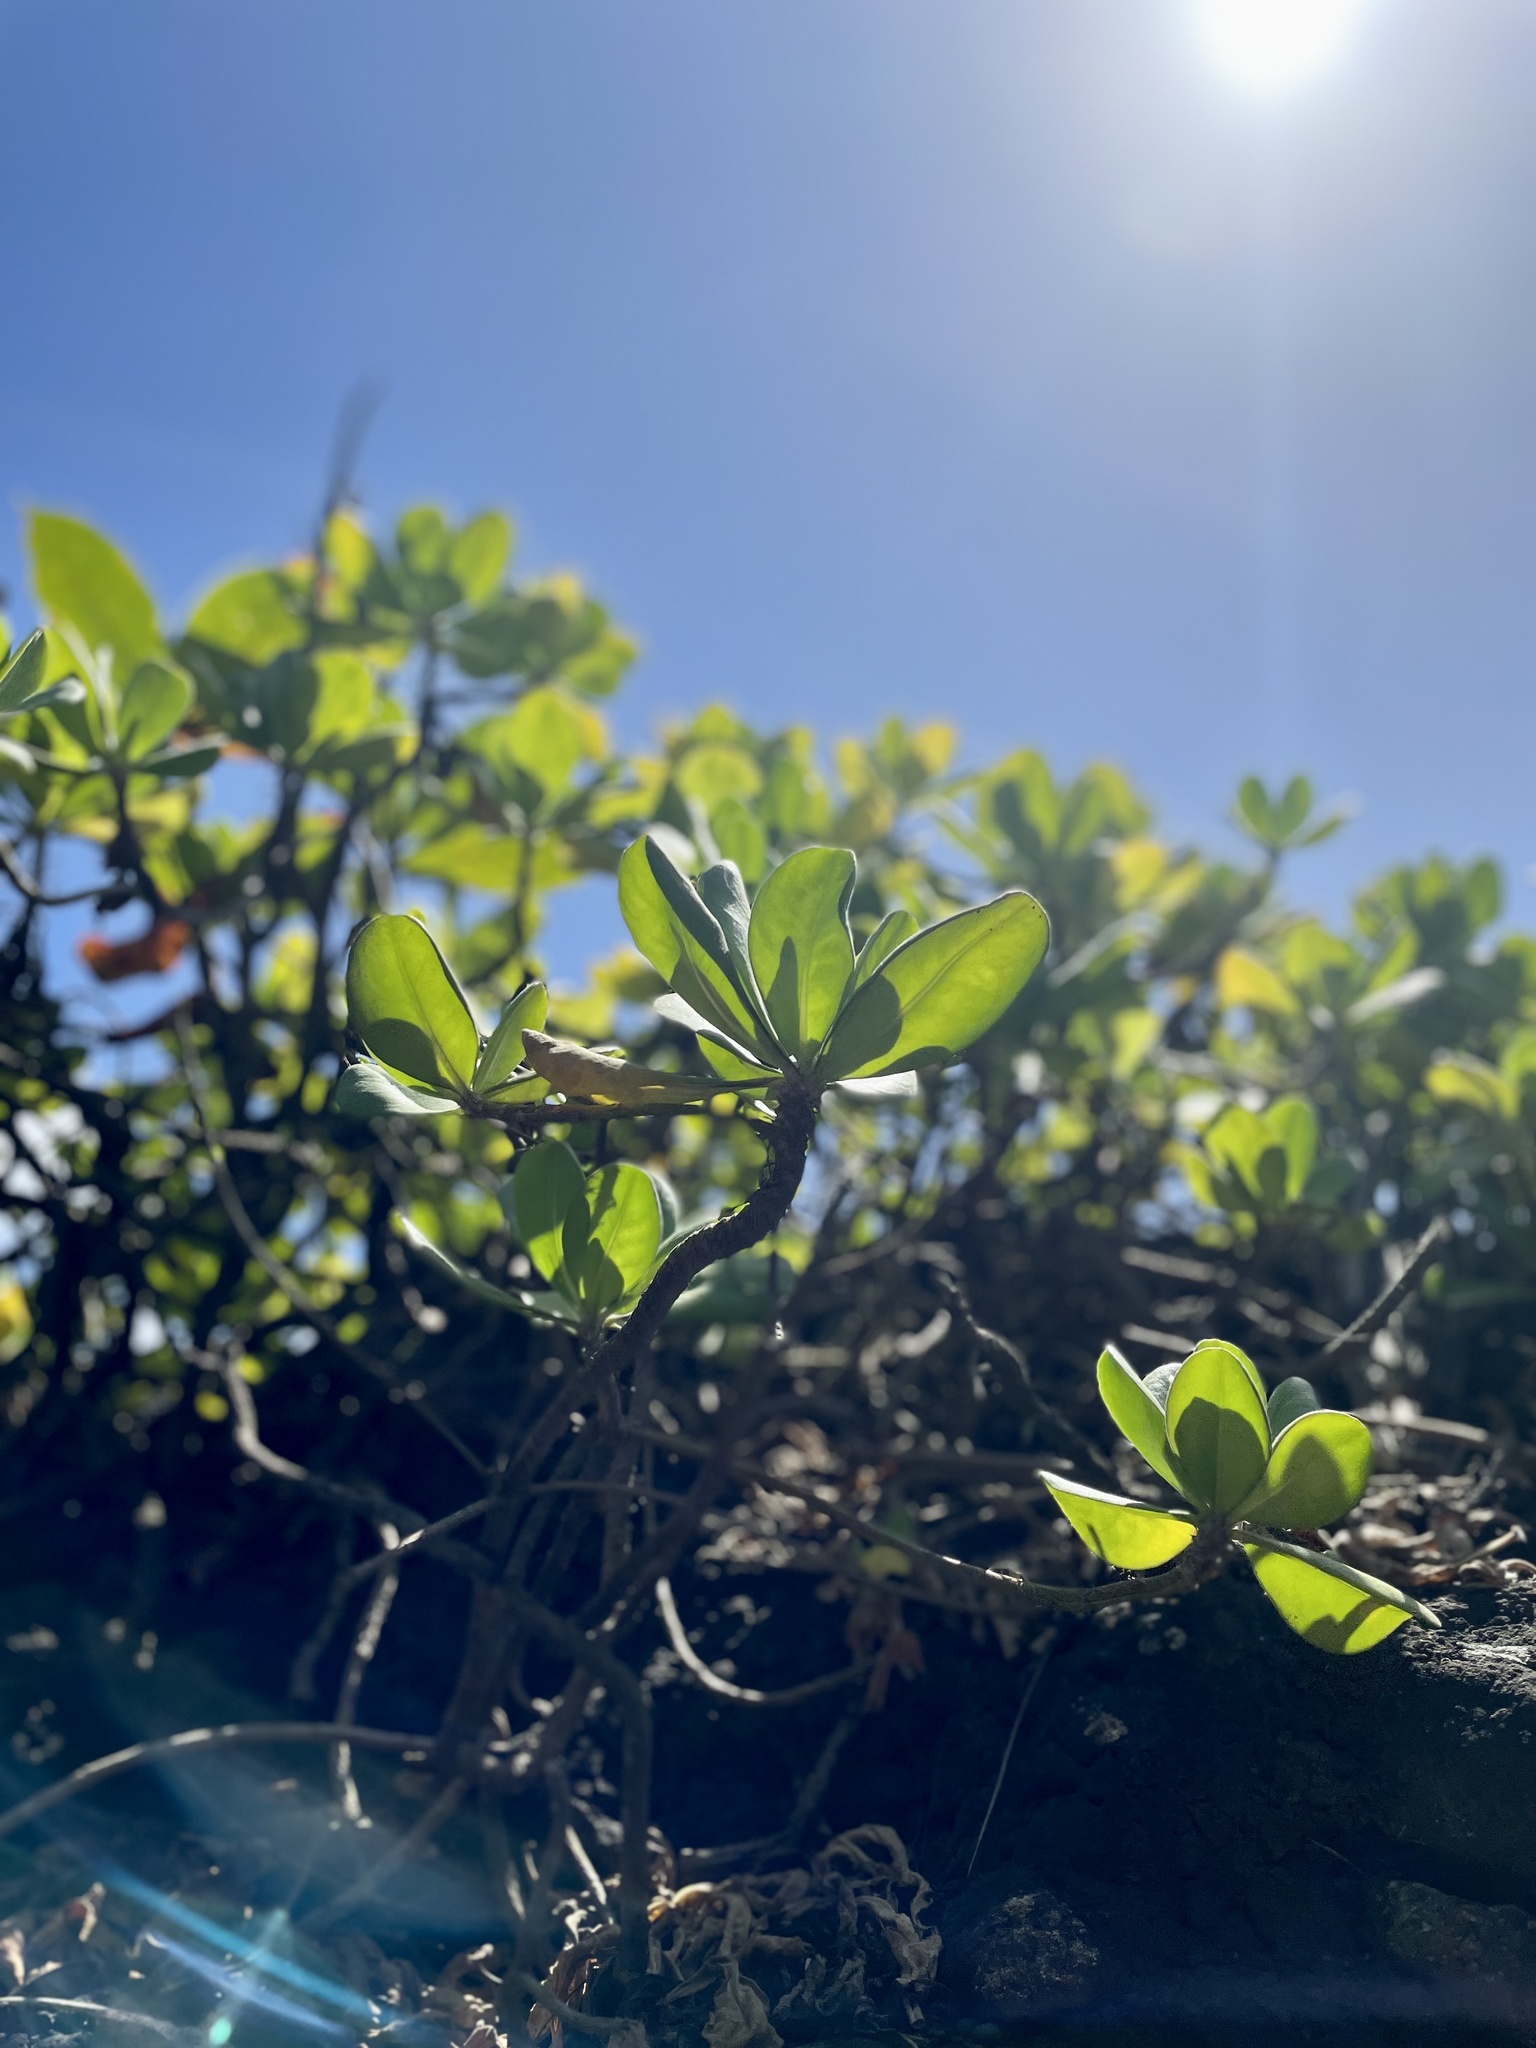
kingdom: Plantae
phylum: Tracheophyta
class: Magnoliopsida
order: Myrtales
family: Combretaceae
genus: Terminalia
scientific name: Terminalia catappa
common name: Tropical almond
